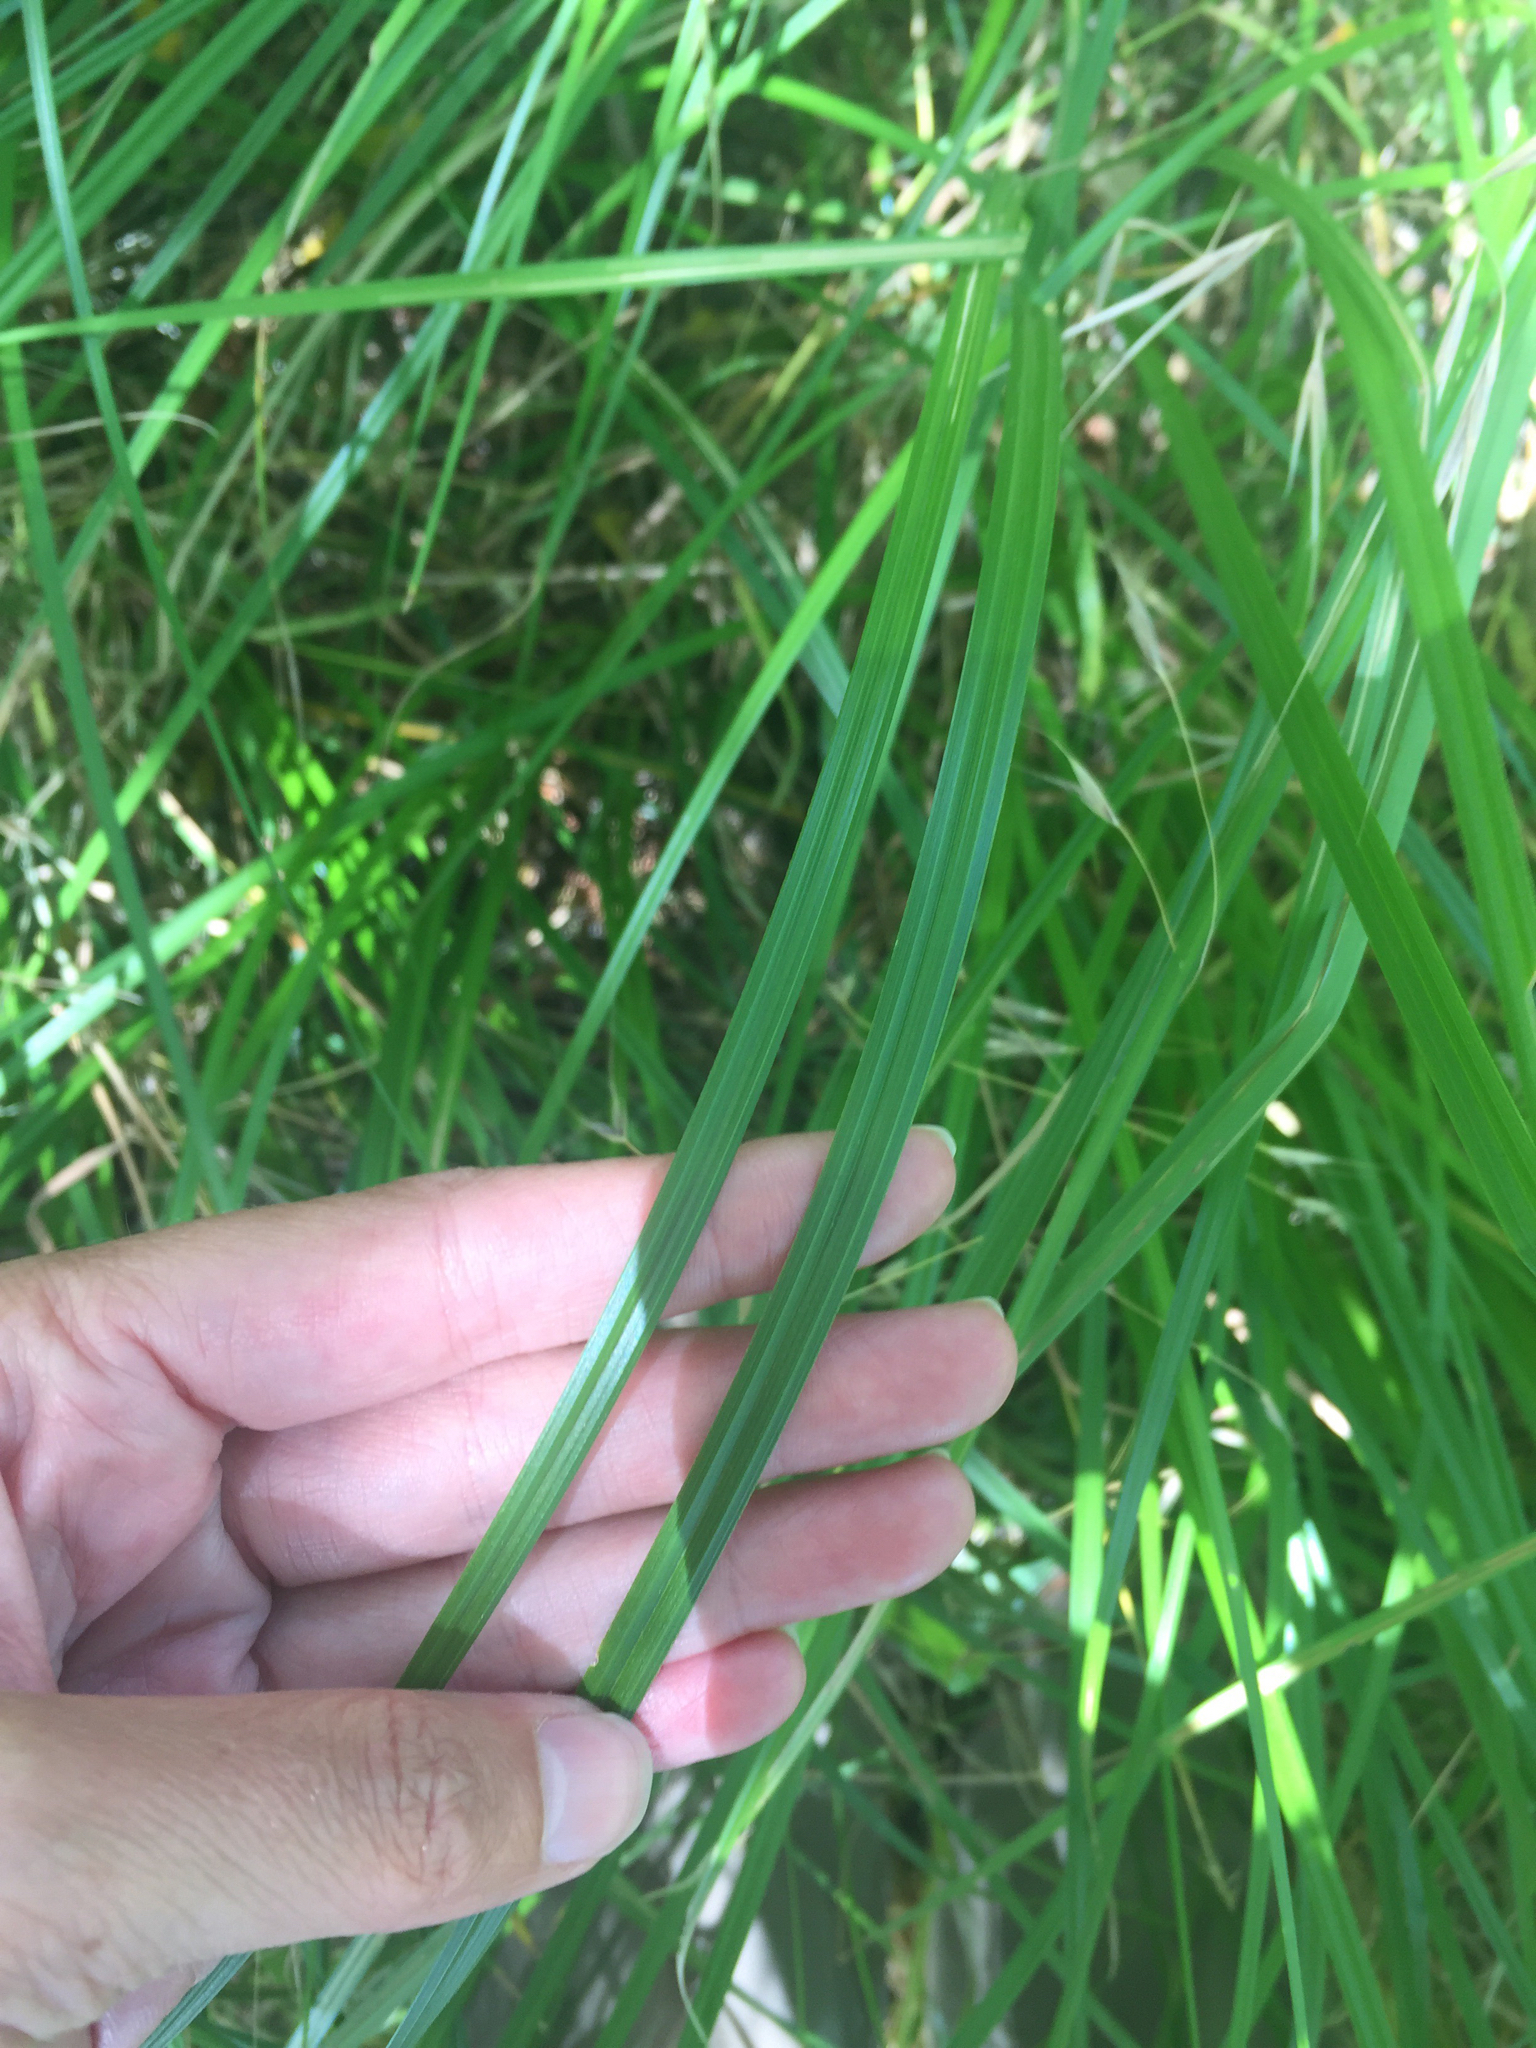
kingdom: Plantae
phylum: Tracheophyta
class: Liliopsida
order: Poales
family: Cyperaceae
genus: Carex
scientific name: Carex barbarae
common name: Santa barbara sedge
